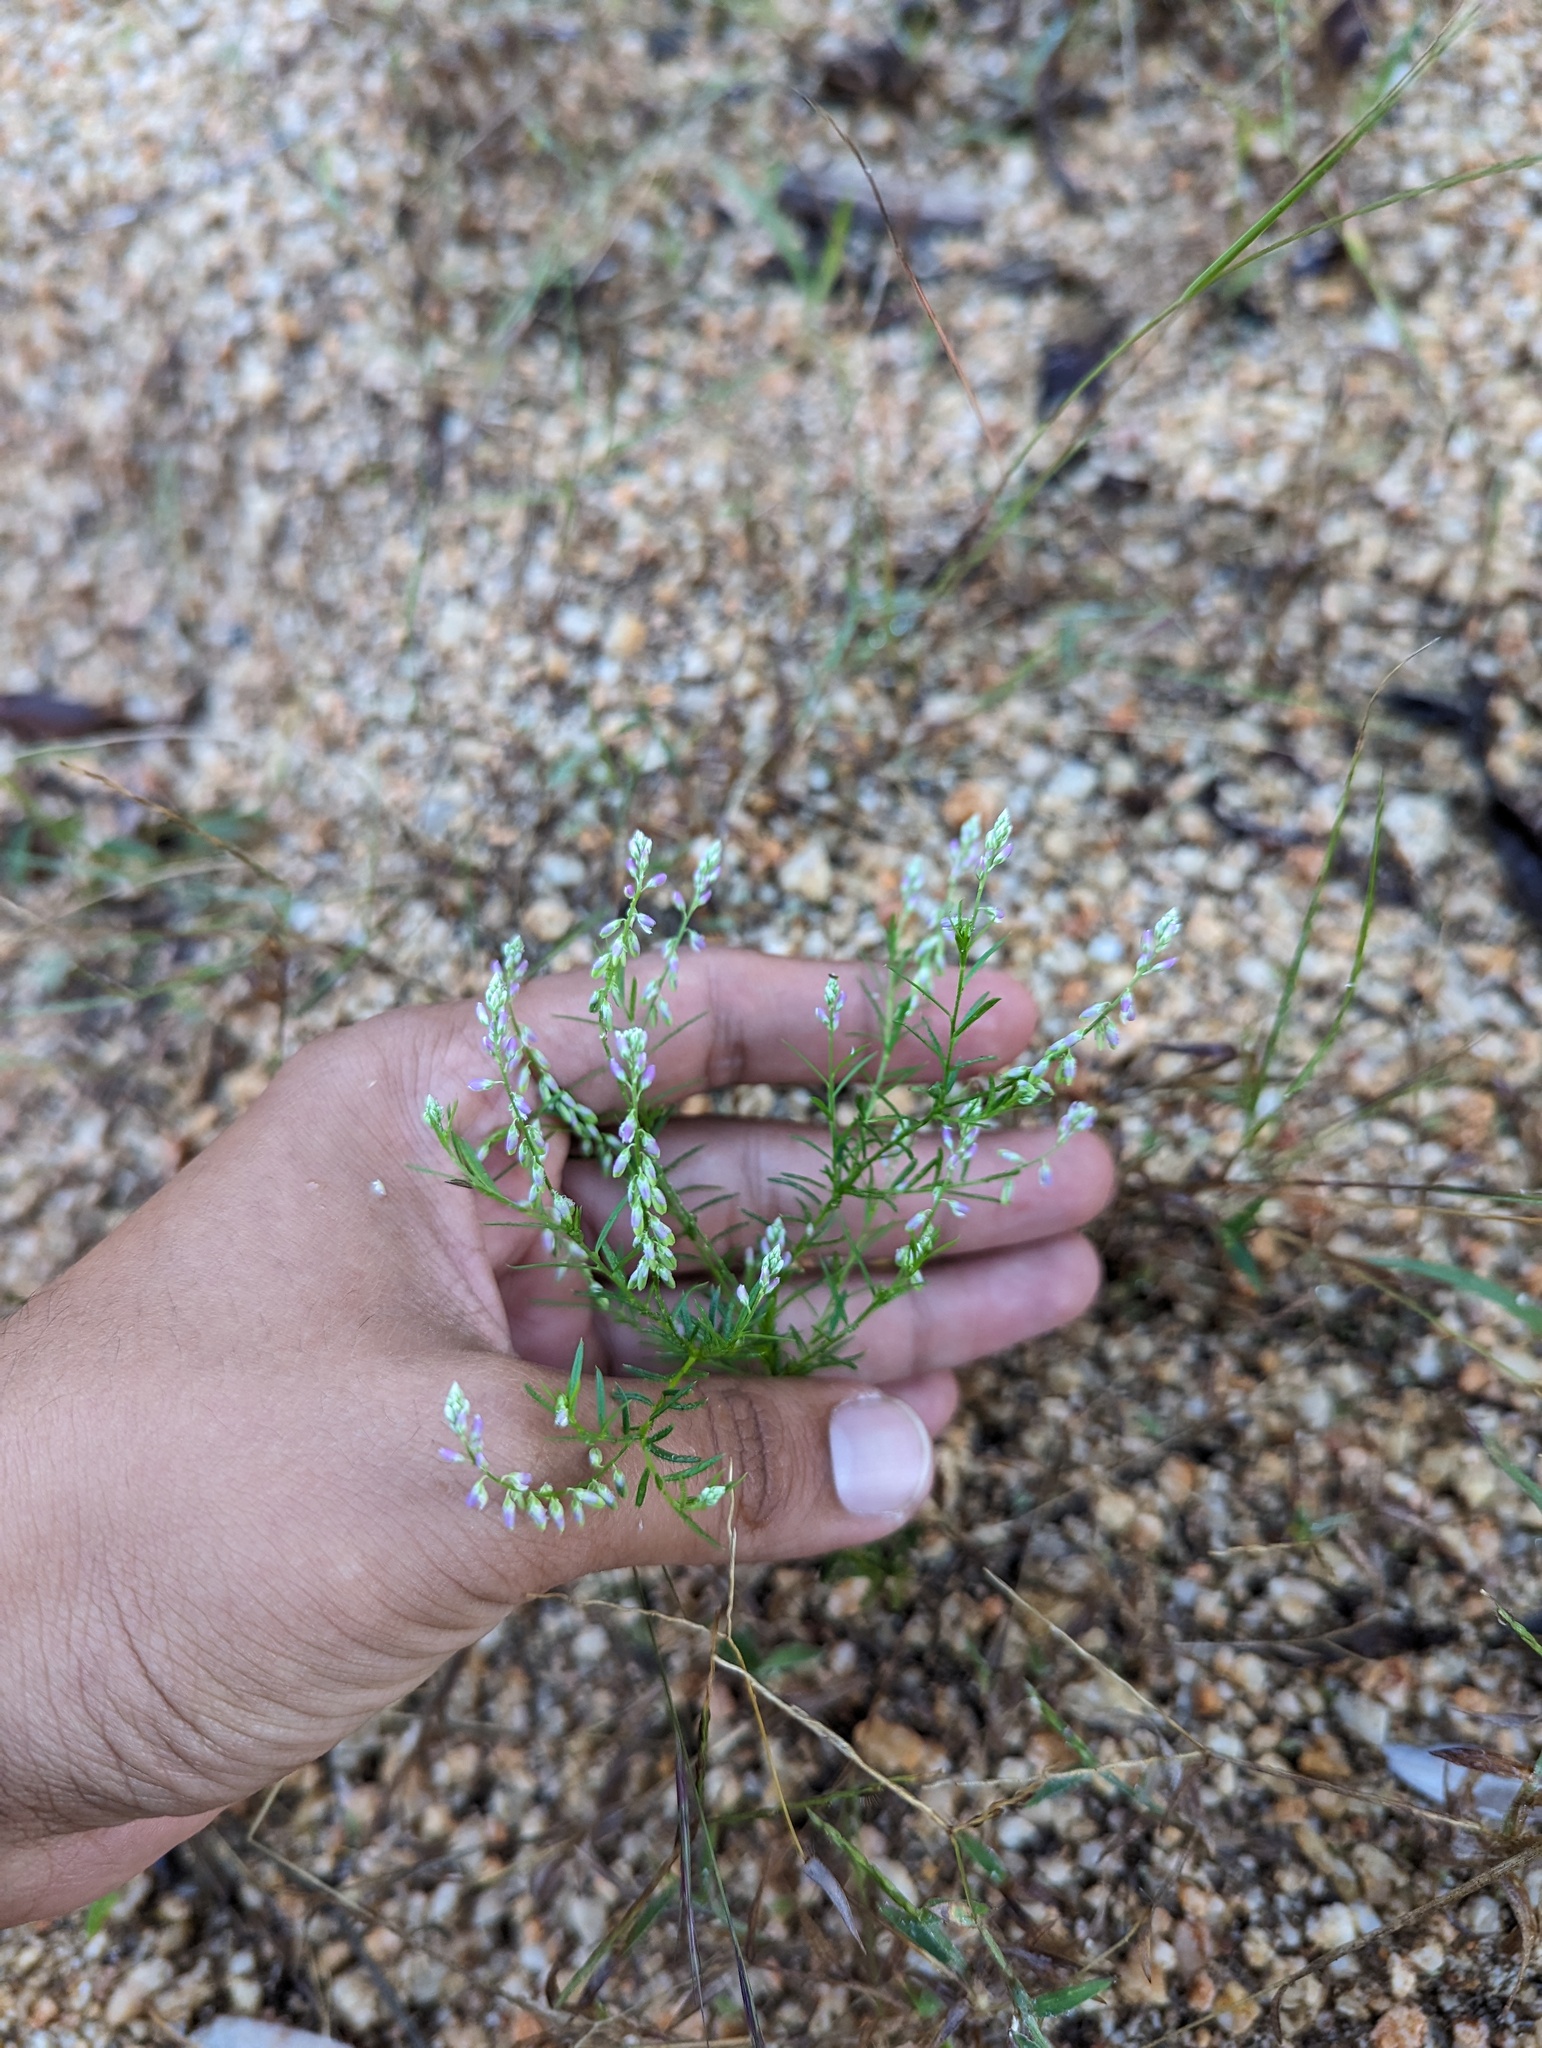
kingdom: Plantae
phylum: Tracheophyta
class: Magnoliopsida
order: Fabales
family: Polygalaceae
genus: Polygala
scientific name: Polygala glochidiata
